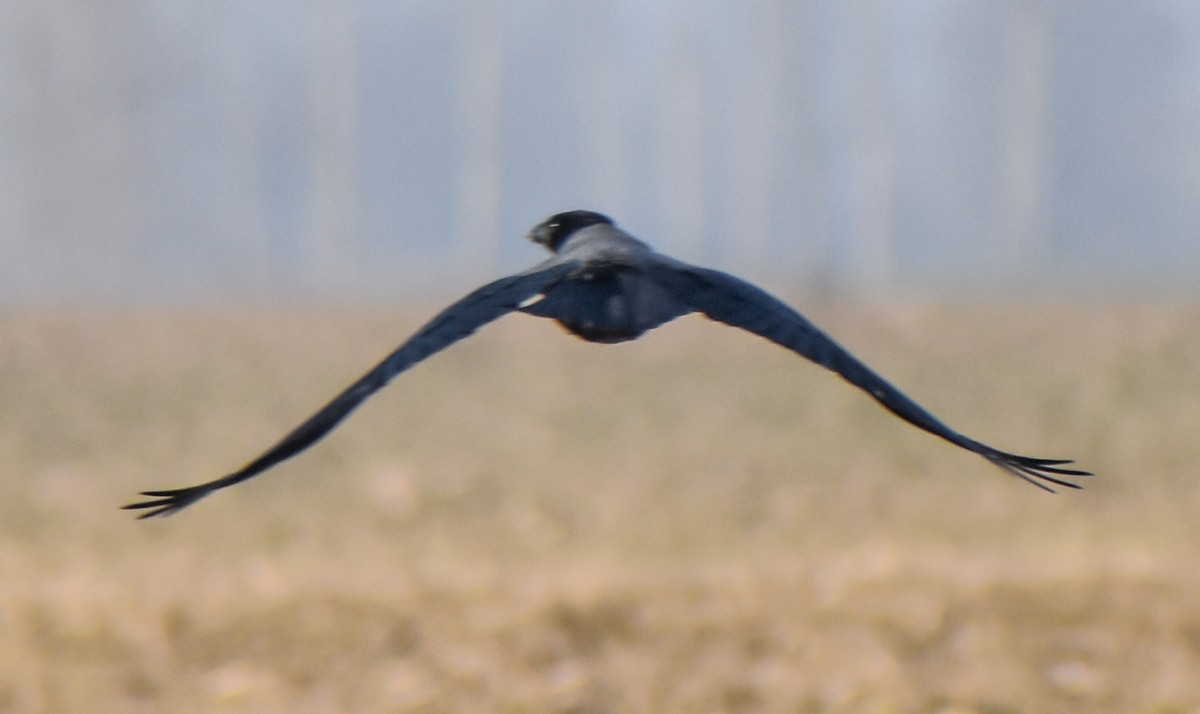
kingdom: Animalia
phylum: Chordata
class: Aves
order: Passeriformes
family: Corvidae
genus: Corvus
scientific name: Corvus cornix
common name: Hooded crow
